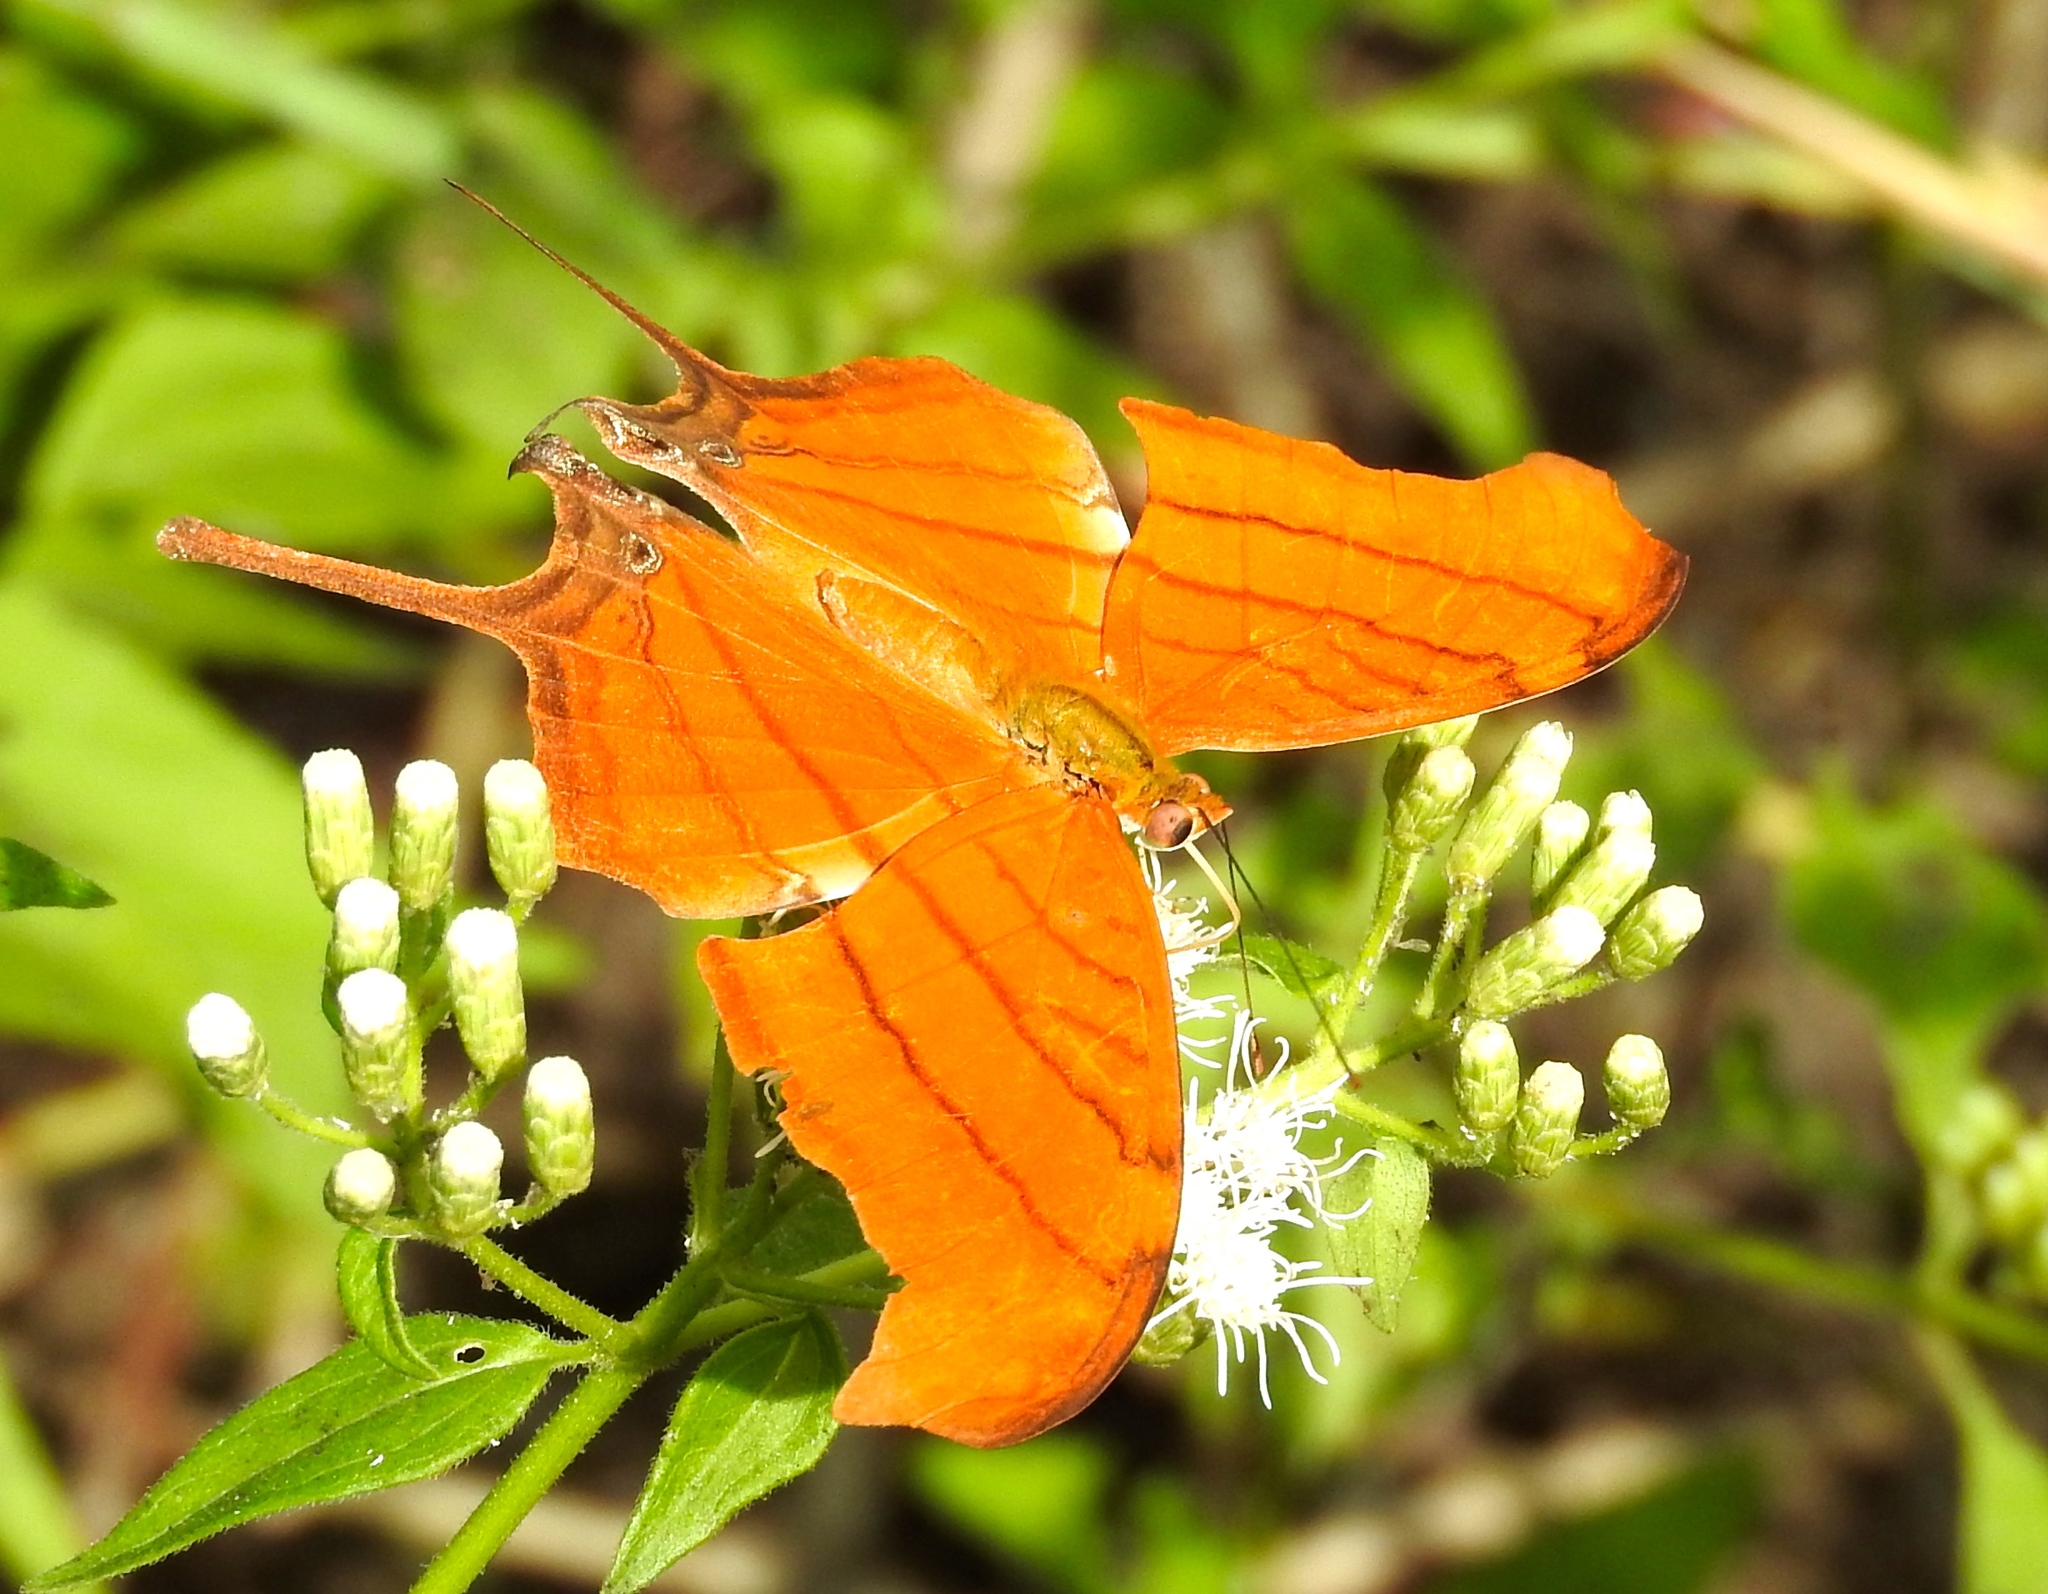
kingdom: Animalia
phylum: Arthropoda
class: Insecta
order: Lepidoptera
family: Nymphalidae
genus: Marpesia
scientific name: Marpesia petreus
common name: Red dagger wing
